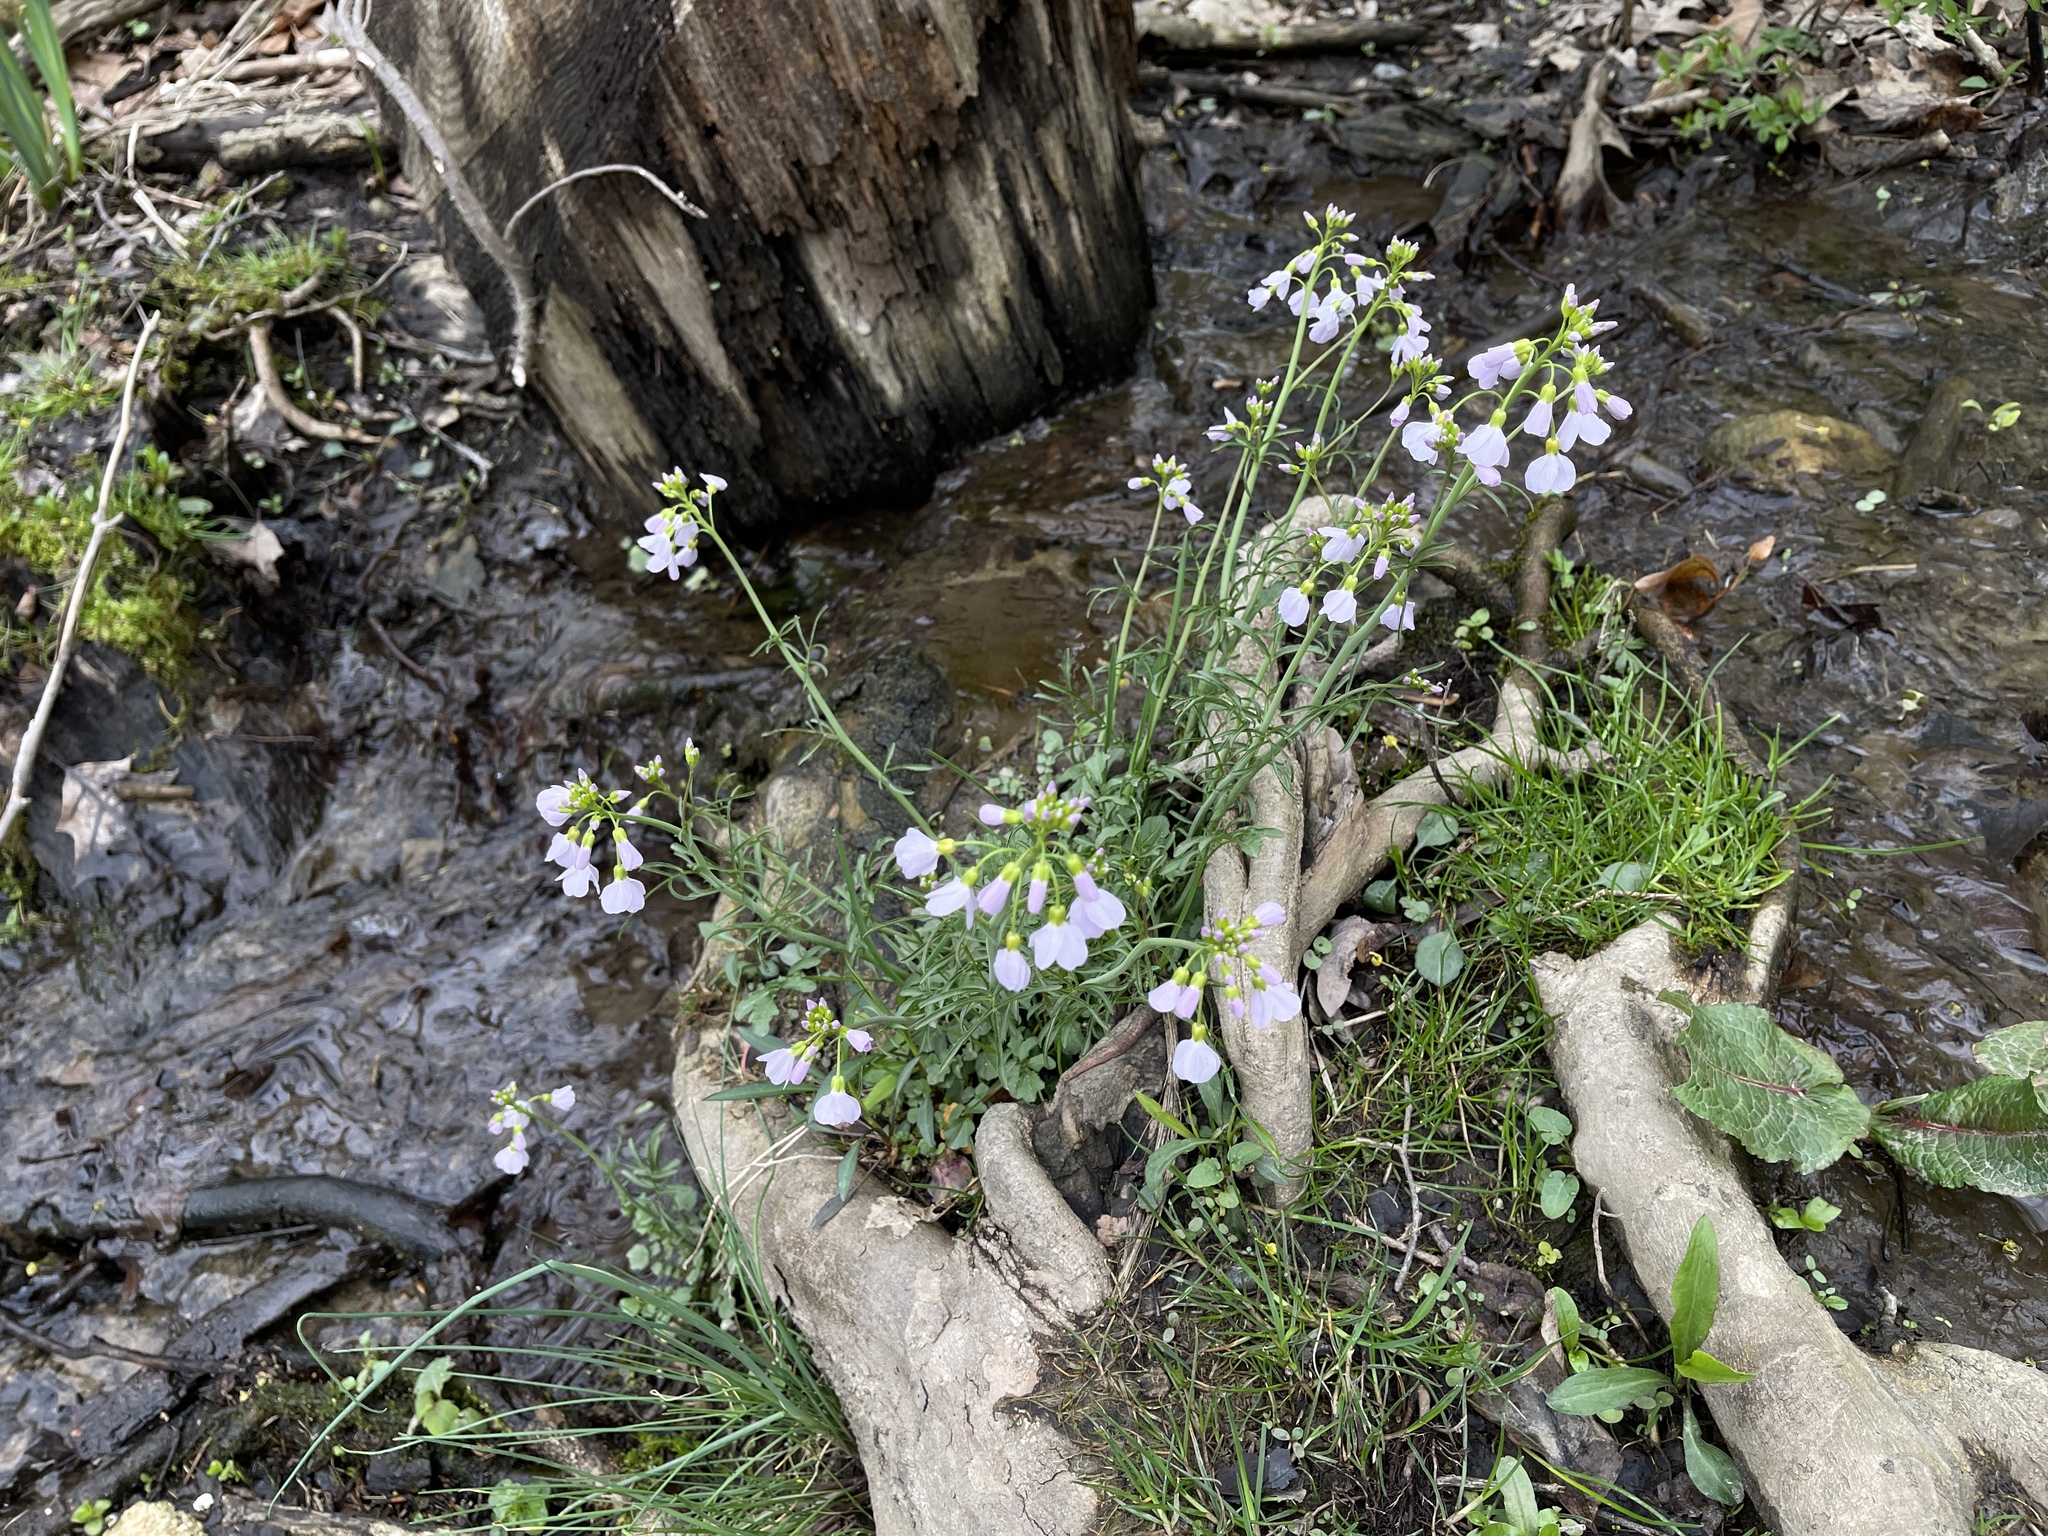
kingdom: Plantae
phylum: Tracheophyta
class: Magnoliopsida
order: Brassicales
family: Brassicaceae
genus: Cardamine
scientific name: Cardamine pratensis
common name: Cuckoo flower
